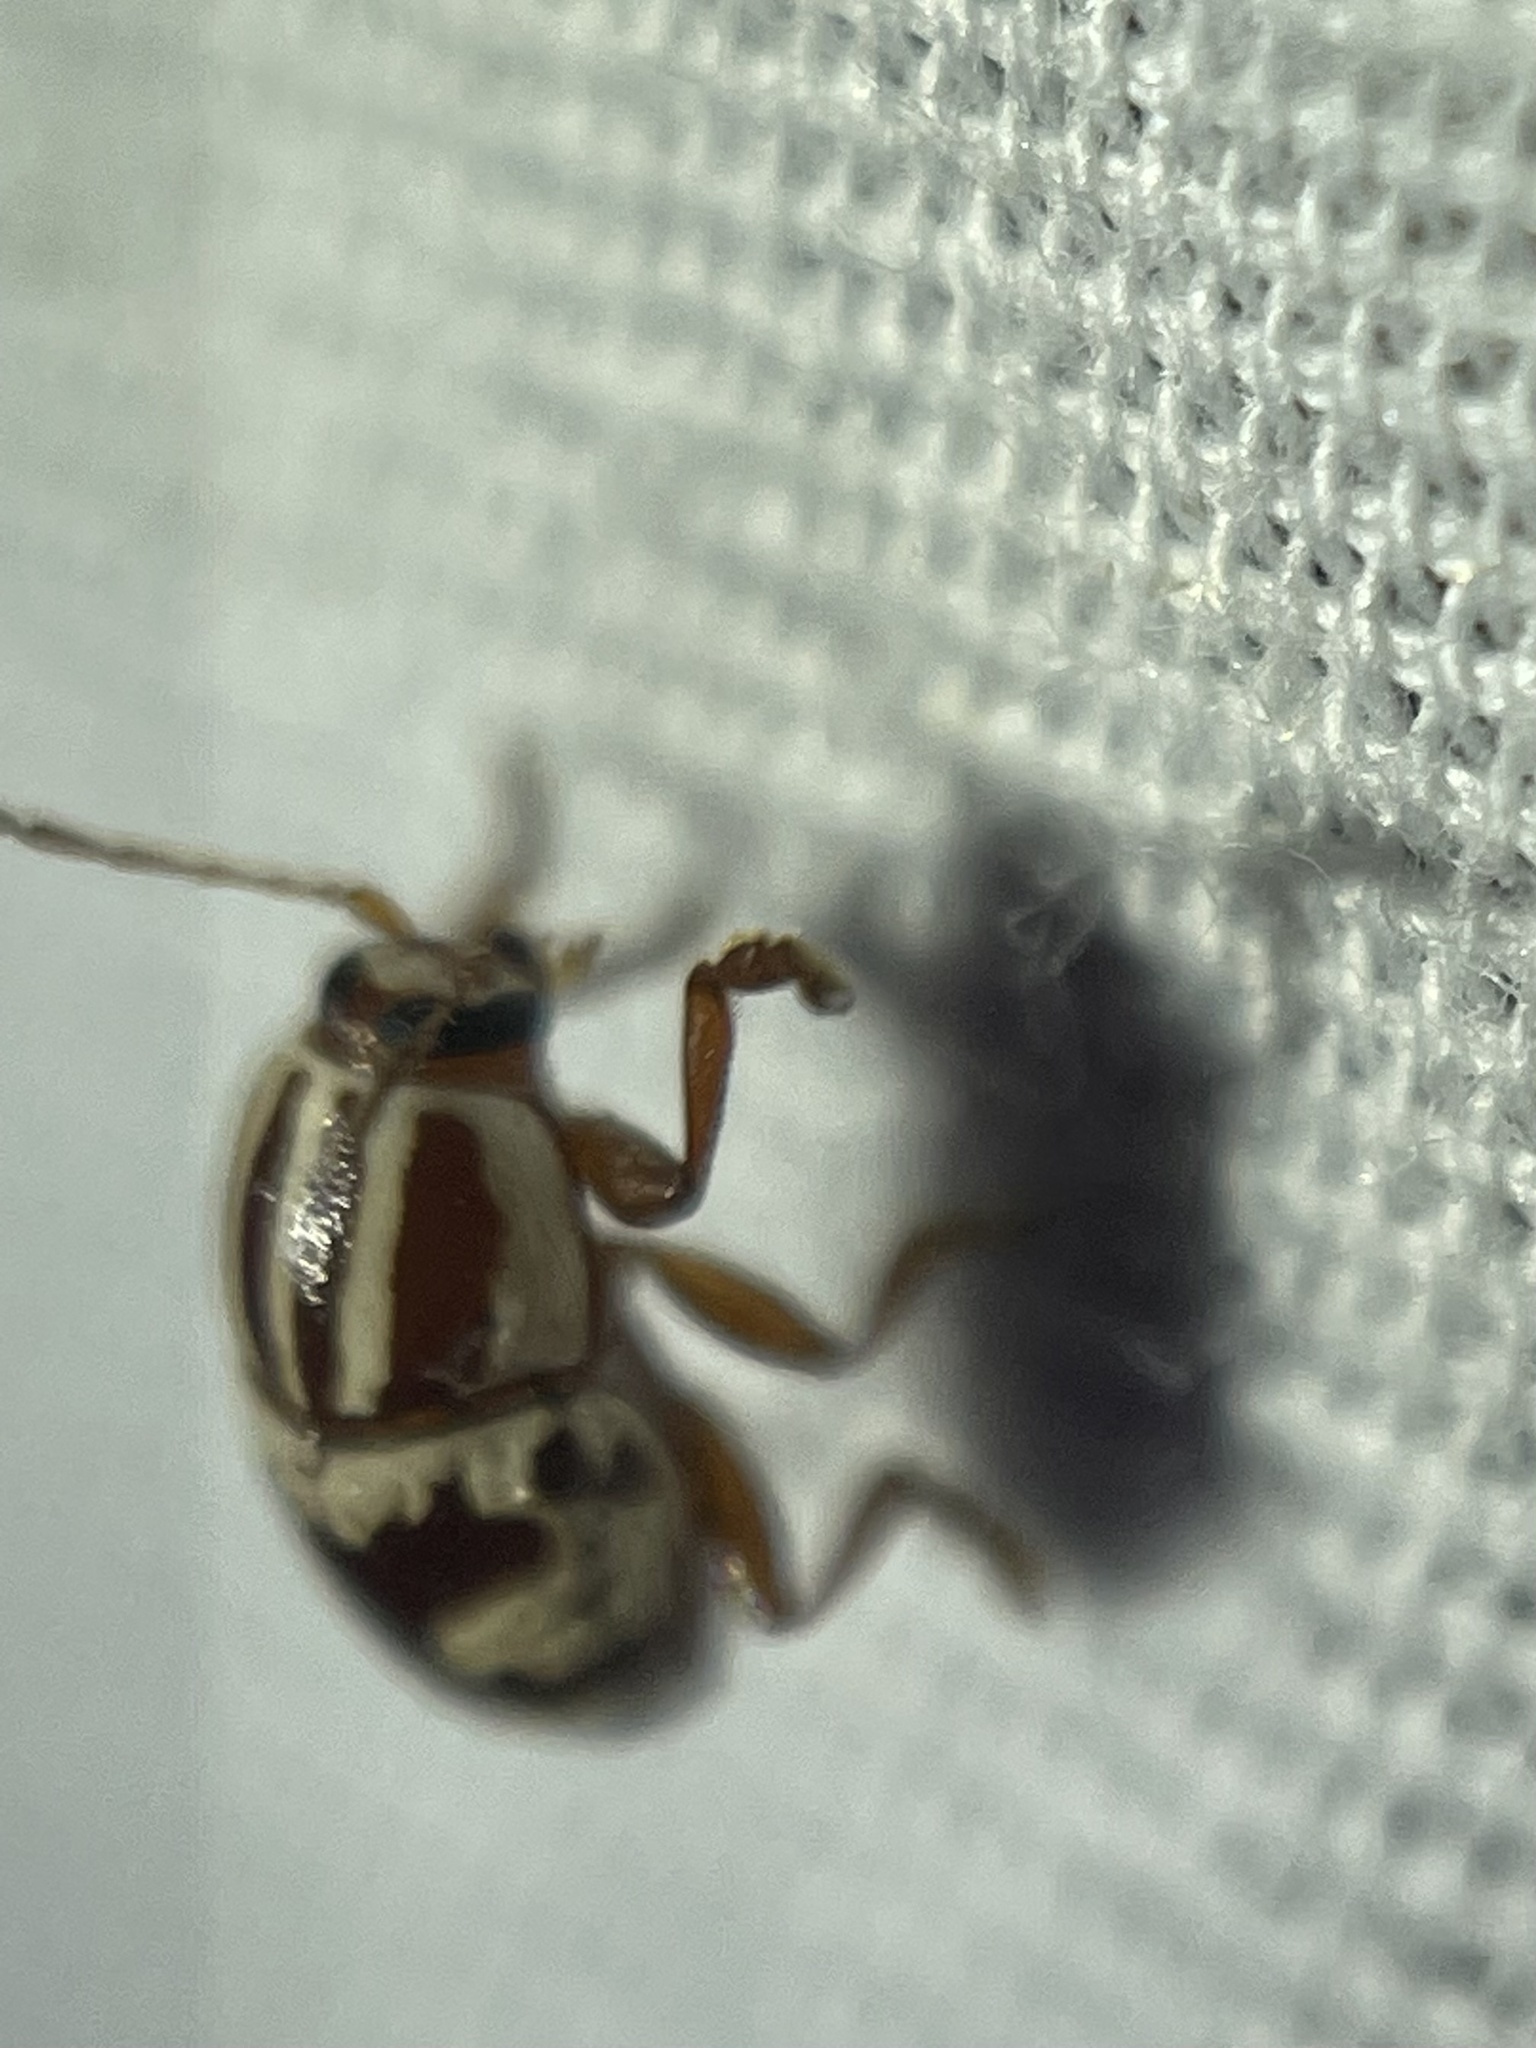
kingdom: Animalia
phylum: Arthropoda
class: Insecta
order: Coleoptera
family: Chrysomelidae
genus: Cryptocephalus
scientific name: Cryptocephalus leucomelas
